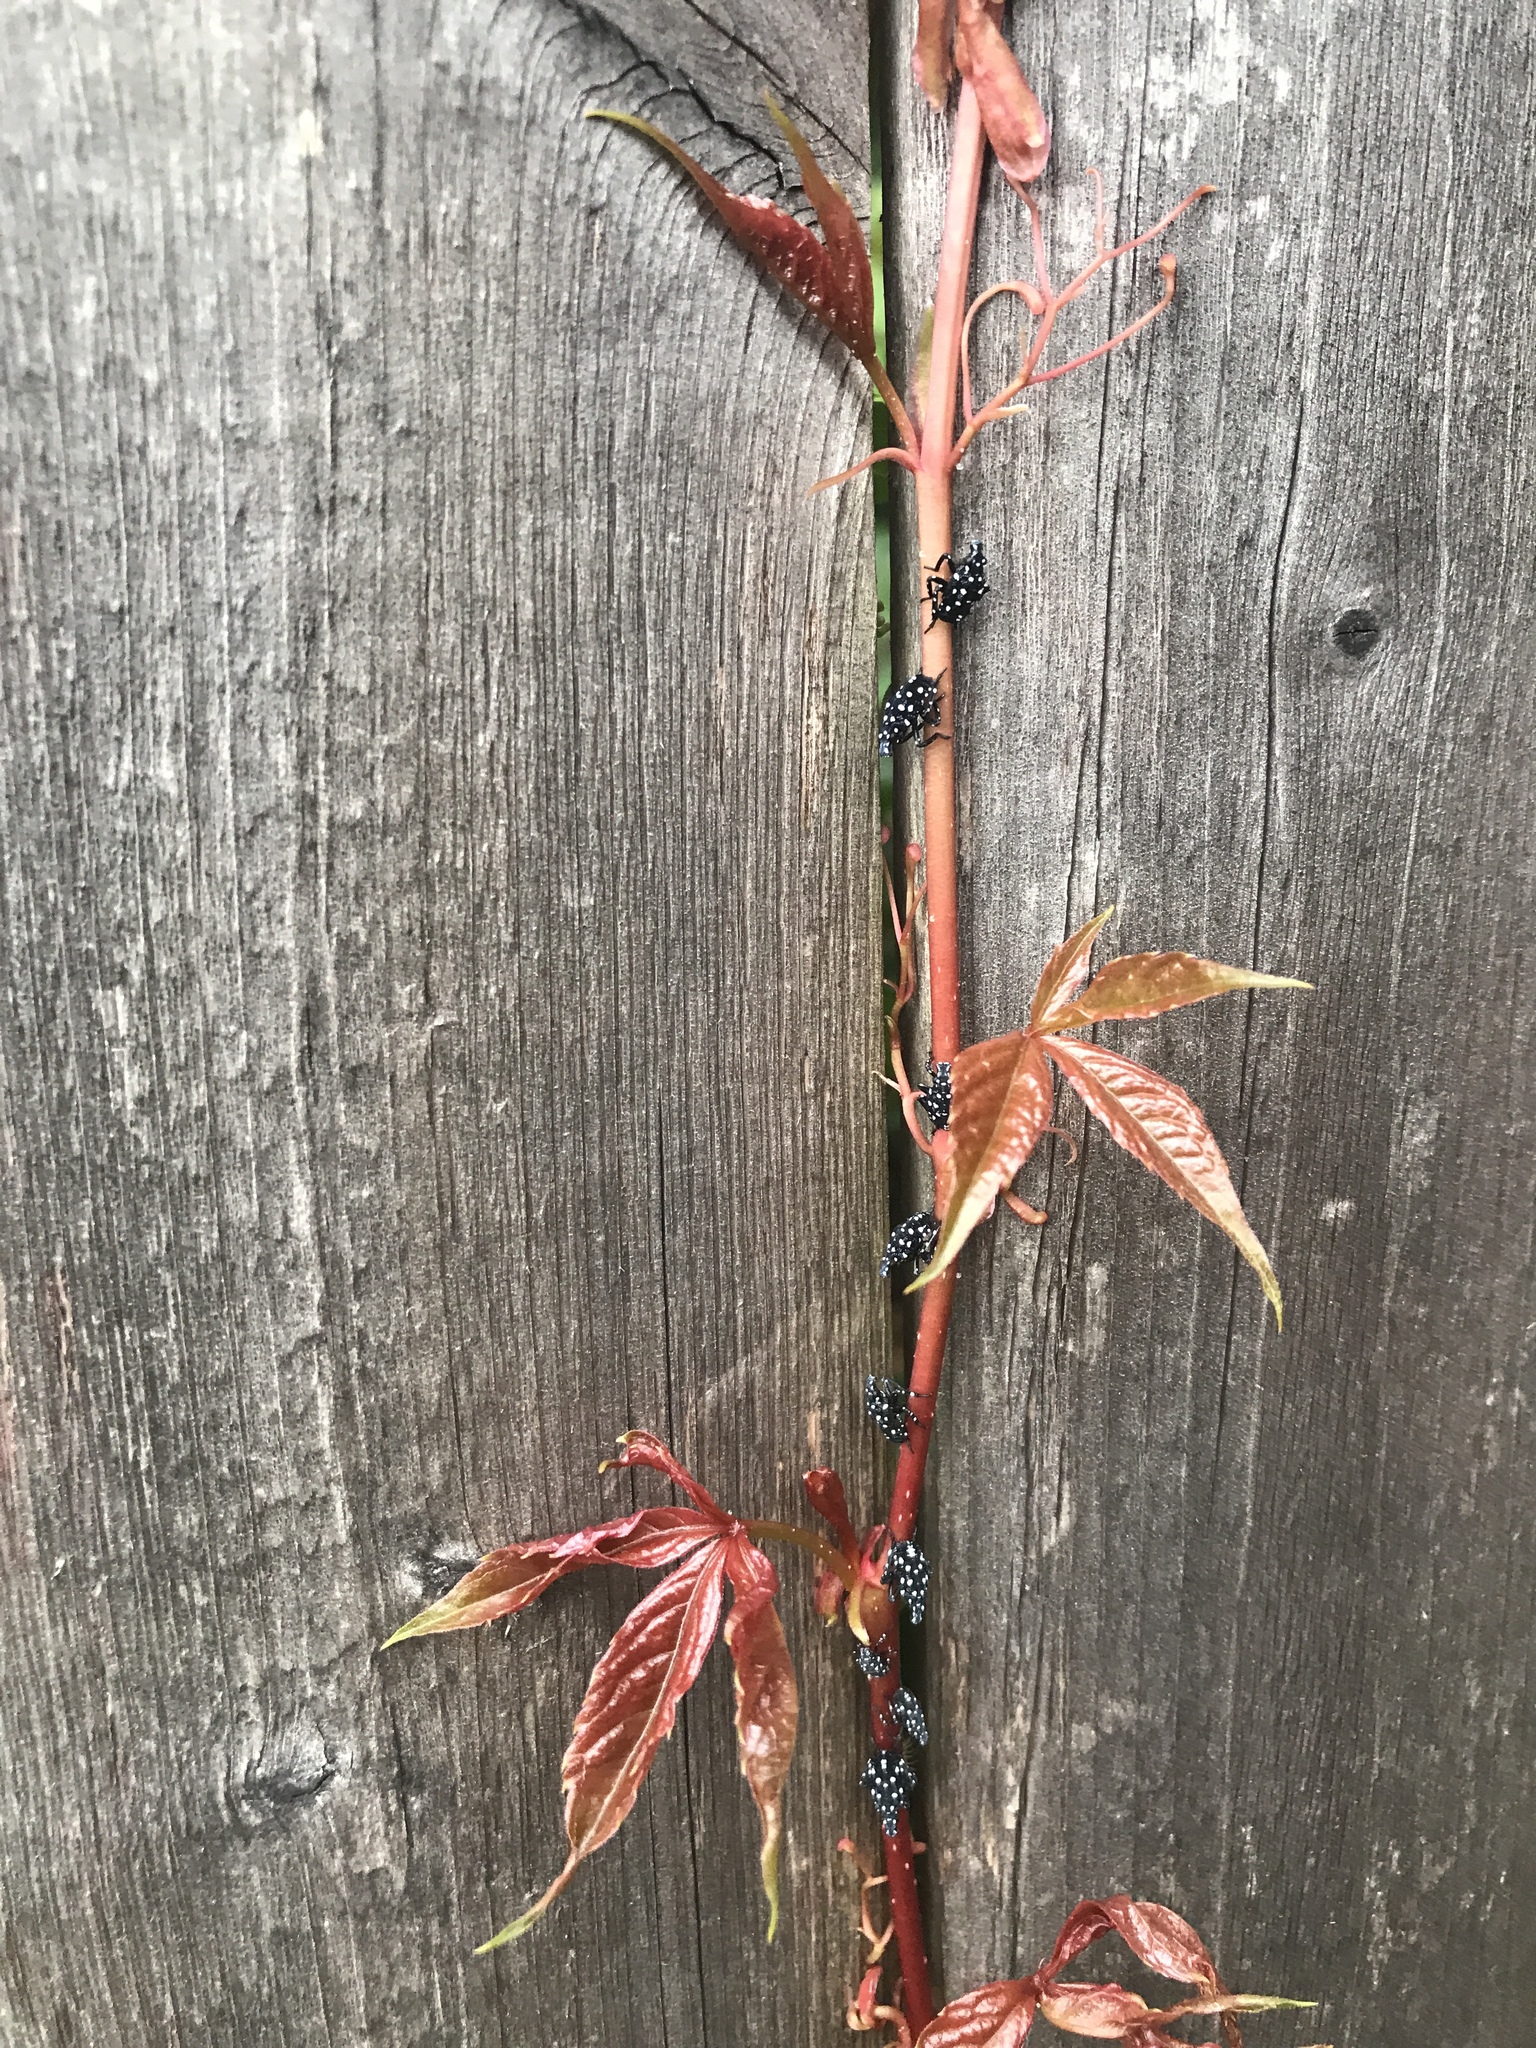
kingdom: Animalia
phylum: Arthropoda
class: Insecta
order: Hemiptera
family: Fulgoridae
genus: Lycorma
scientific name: Lycorma delicatula
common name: Spotted lanternfly
